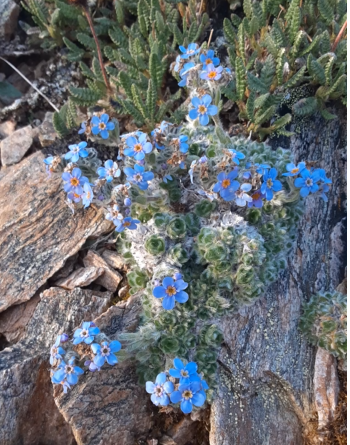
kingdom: Plantae
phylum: Tracheophyta
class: Magnoliopsida
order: Boraginales
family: Boraginaceae
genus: Eritrichium
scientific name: Eritrichium aretioides
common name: Arctic-alpine forget-me-not
